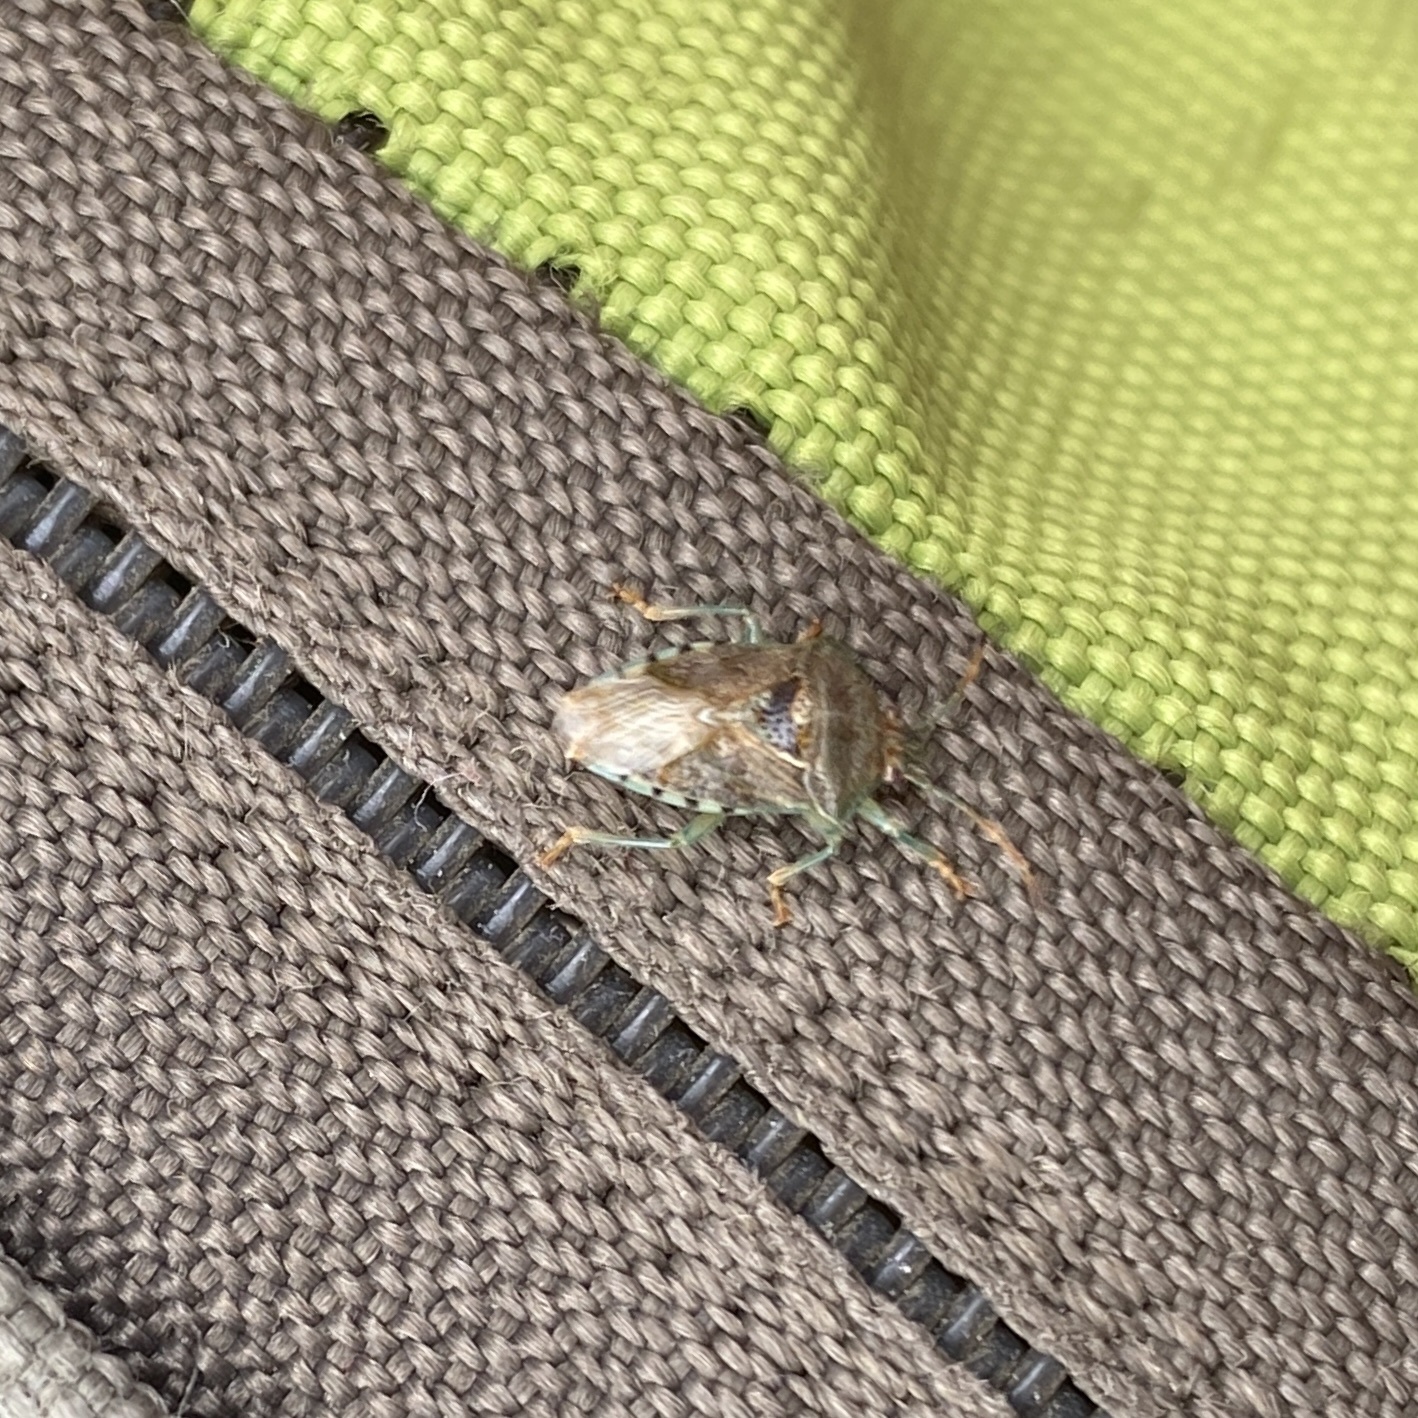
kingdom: Animalia
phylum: Arthropoda
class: Insecta
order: Hemiptera
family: Acanthosomatidae
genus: Elasmucha
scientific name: Elasmucha grisea
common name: Parent bug
